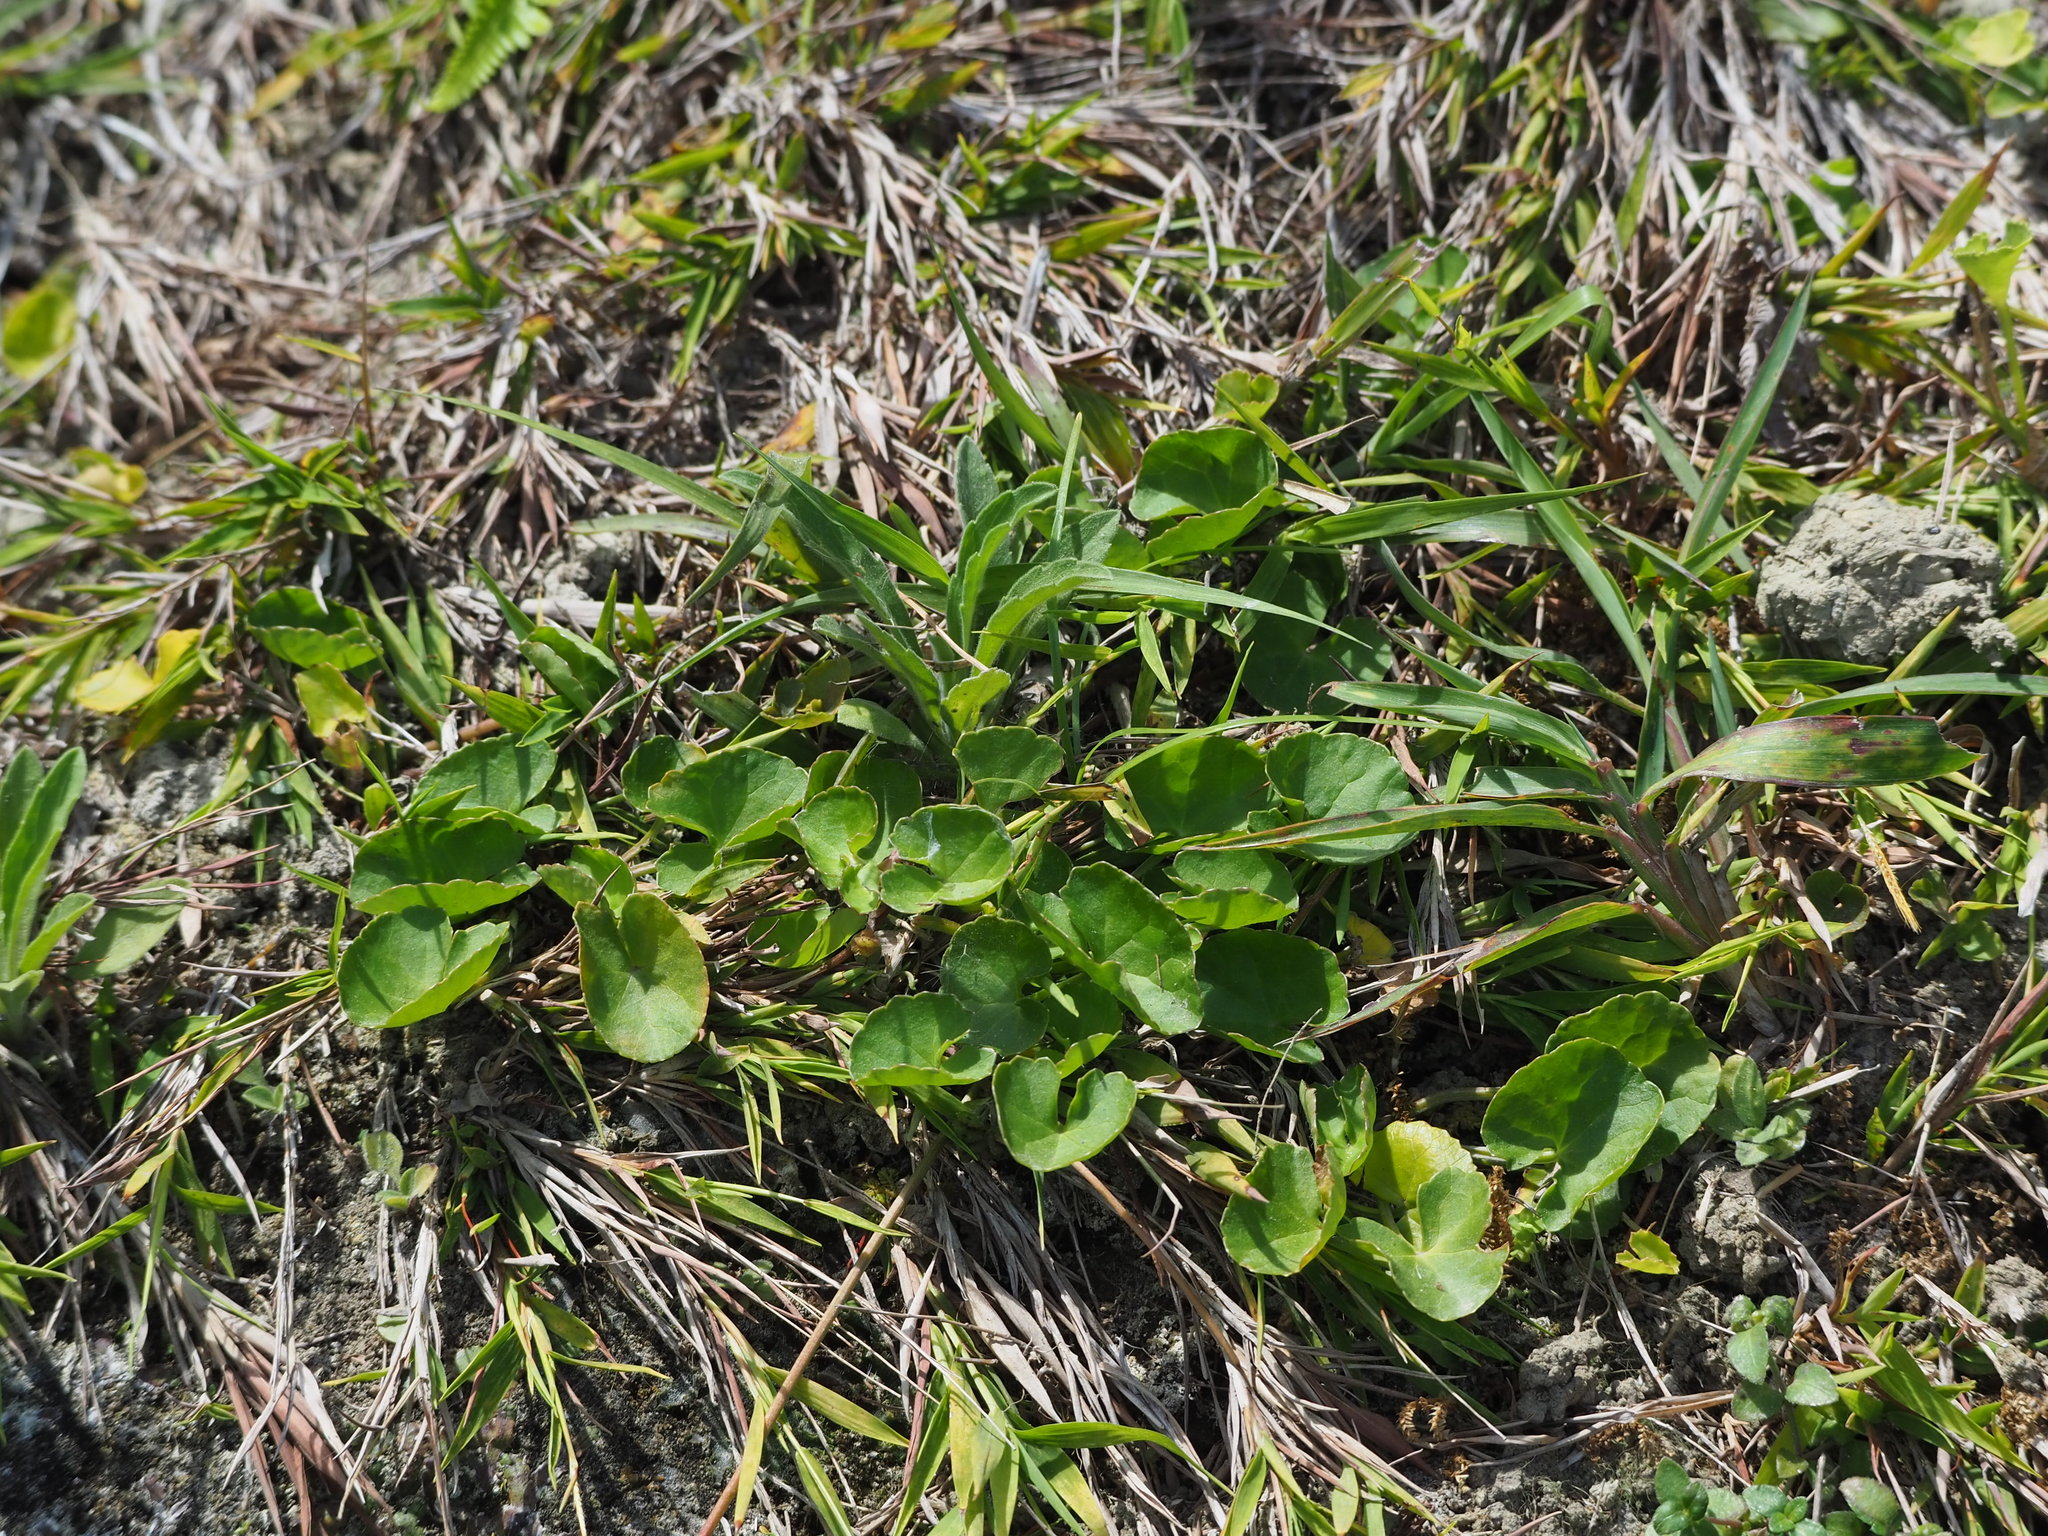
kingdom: Plantae
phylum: Tracheophyta
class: Magnoliopsida
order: Apiales
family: Apiaceae
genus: Centella
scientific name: Centella asiatica
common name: Spadeleaf
